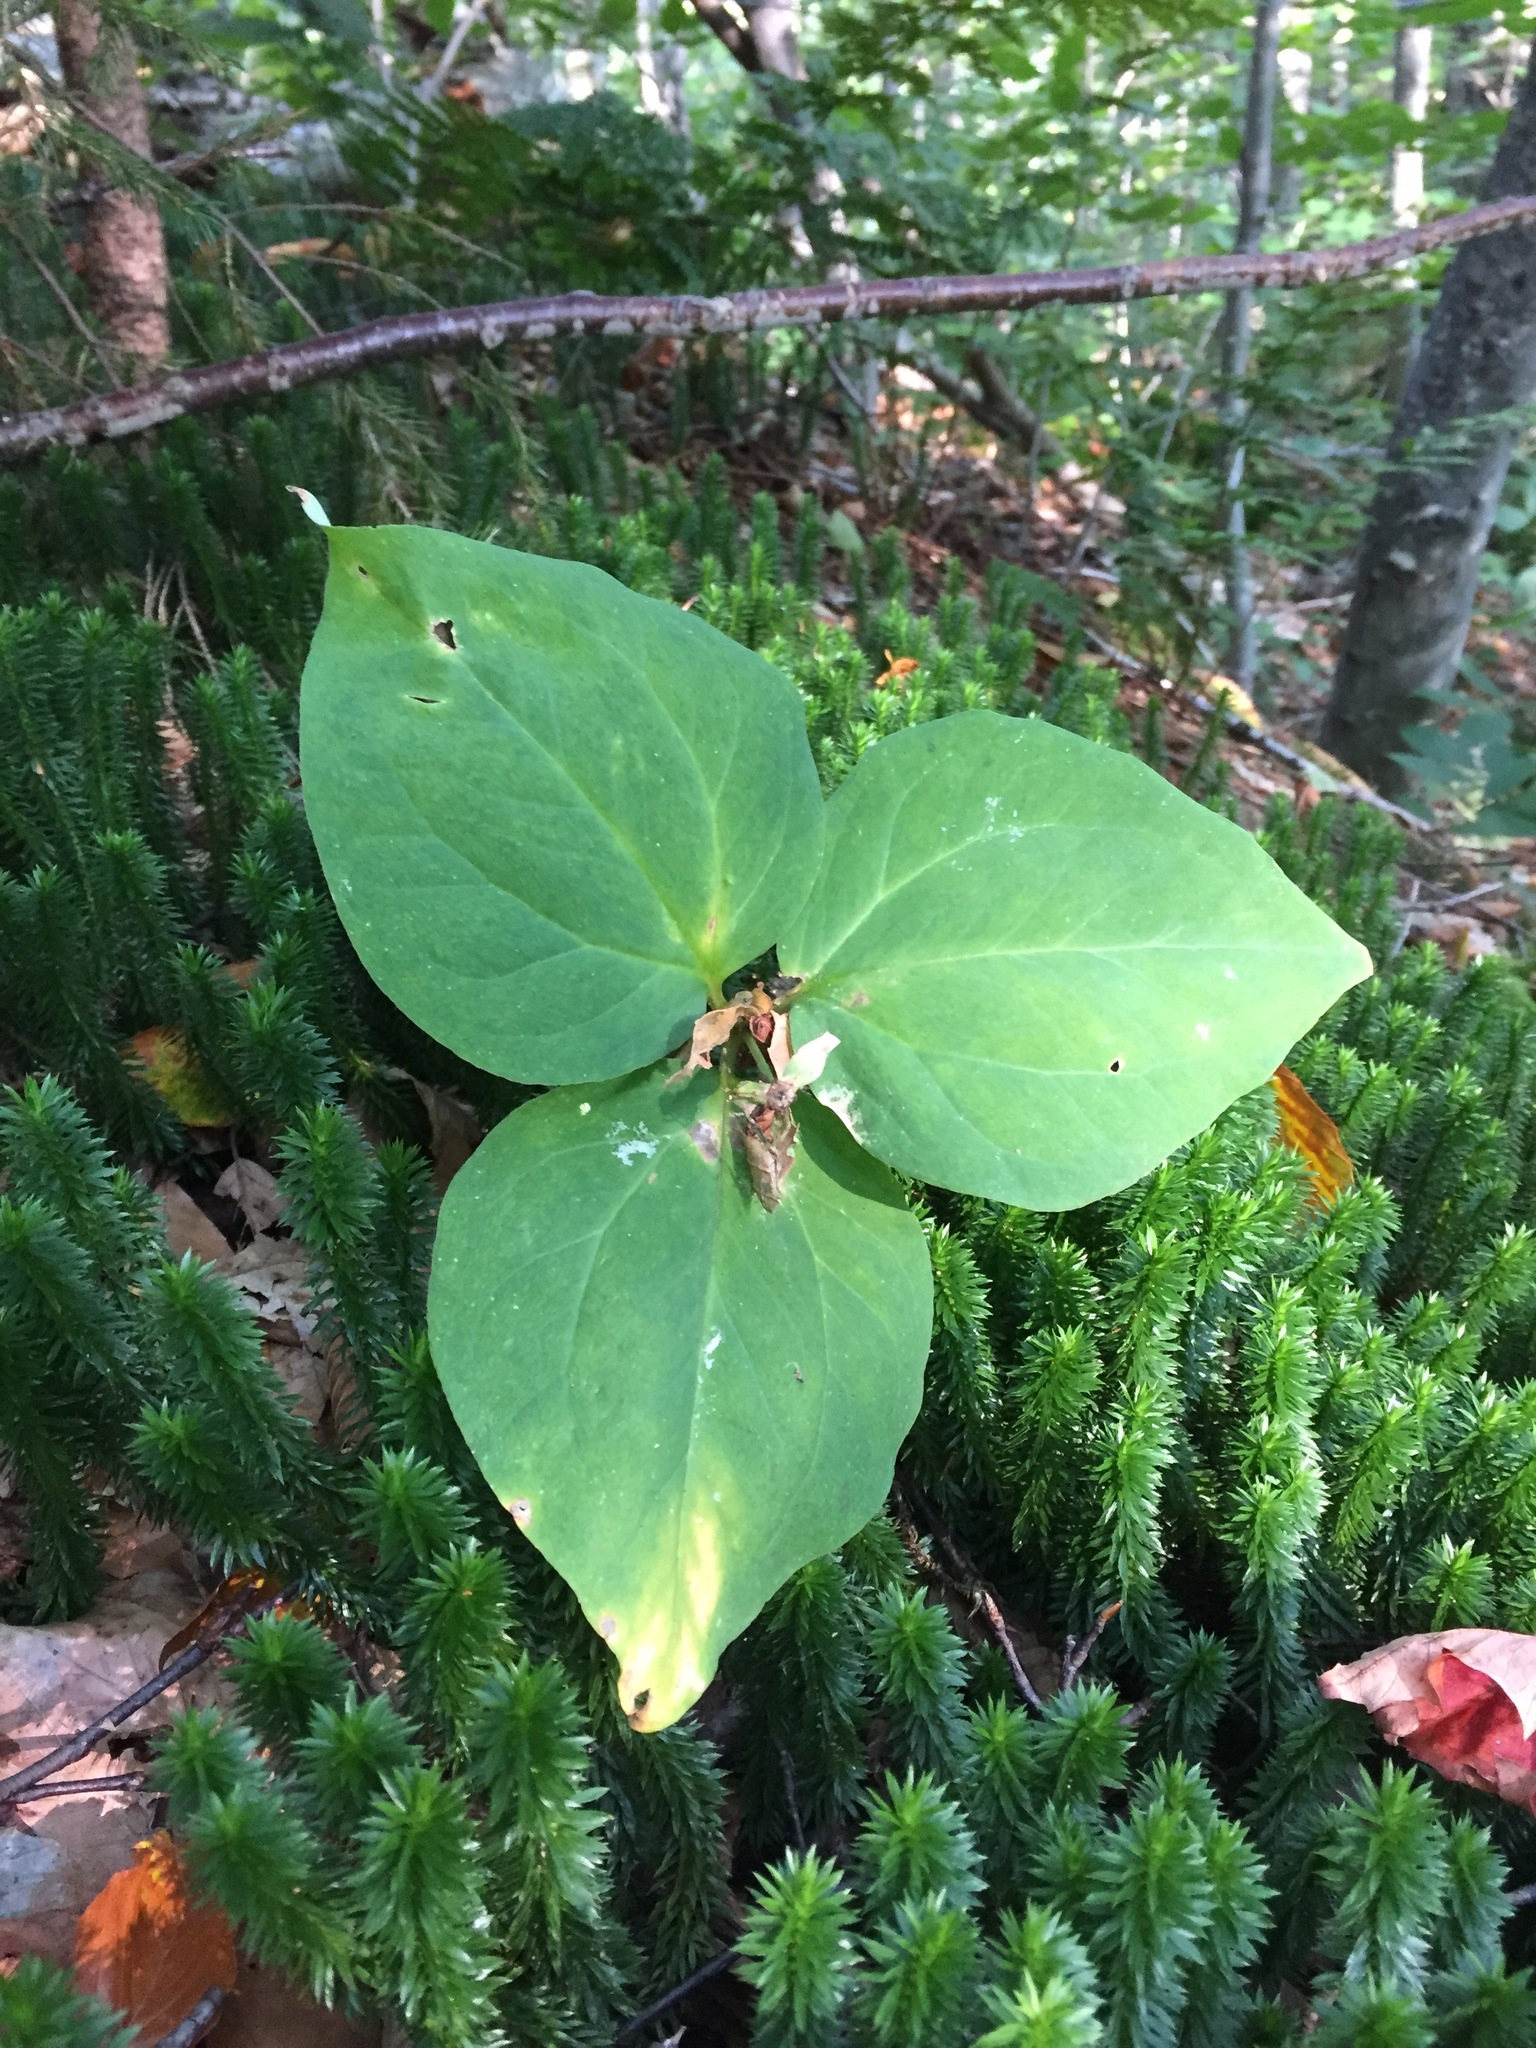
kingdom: Plantae
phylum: Tracheophyta
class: Liliopsida
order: Liliales
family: Melanthiaceae
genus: Trillium
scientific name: Trillium undulatum
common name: Paint trillium
